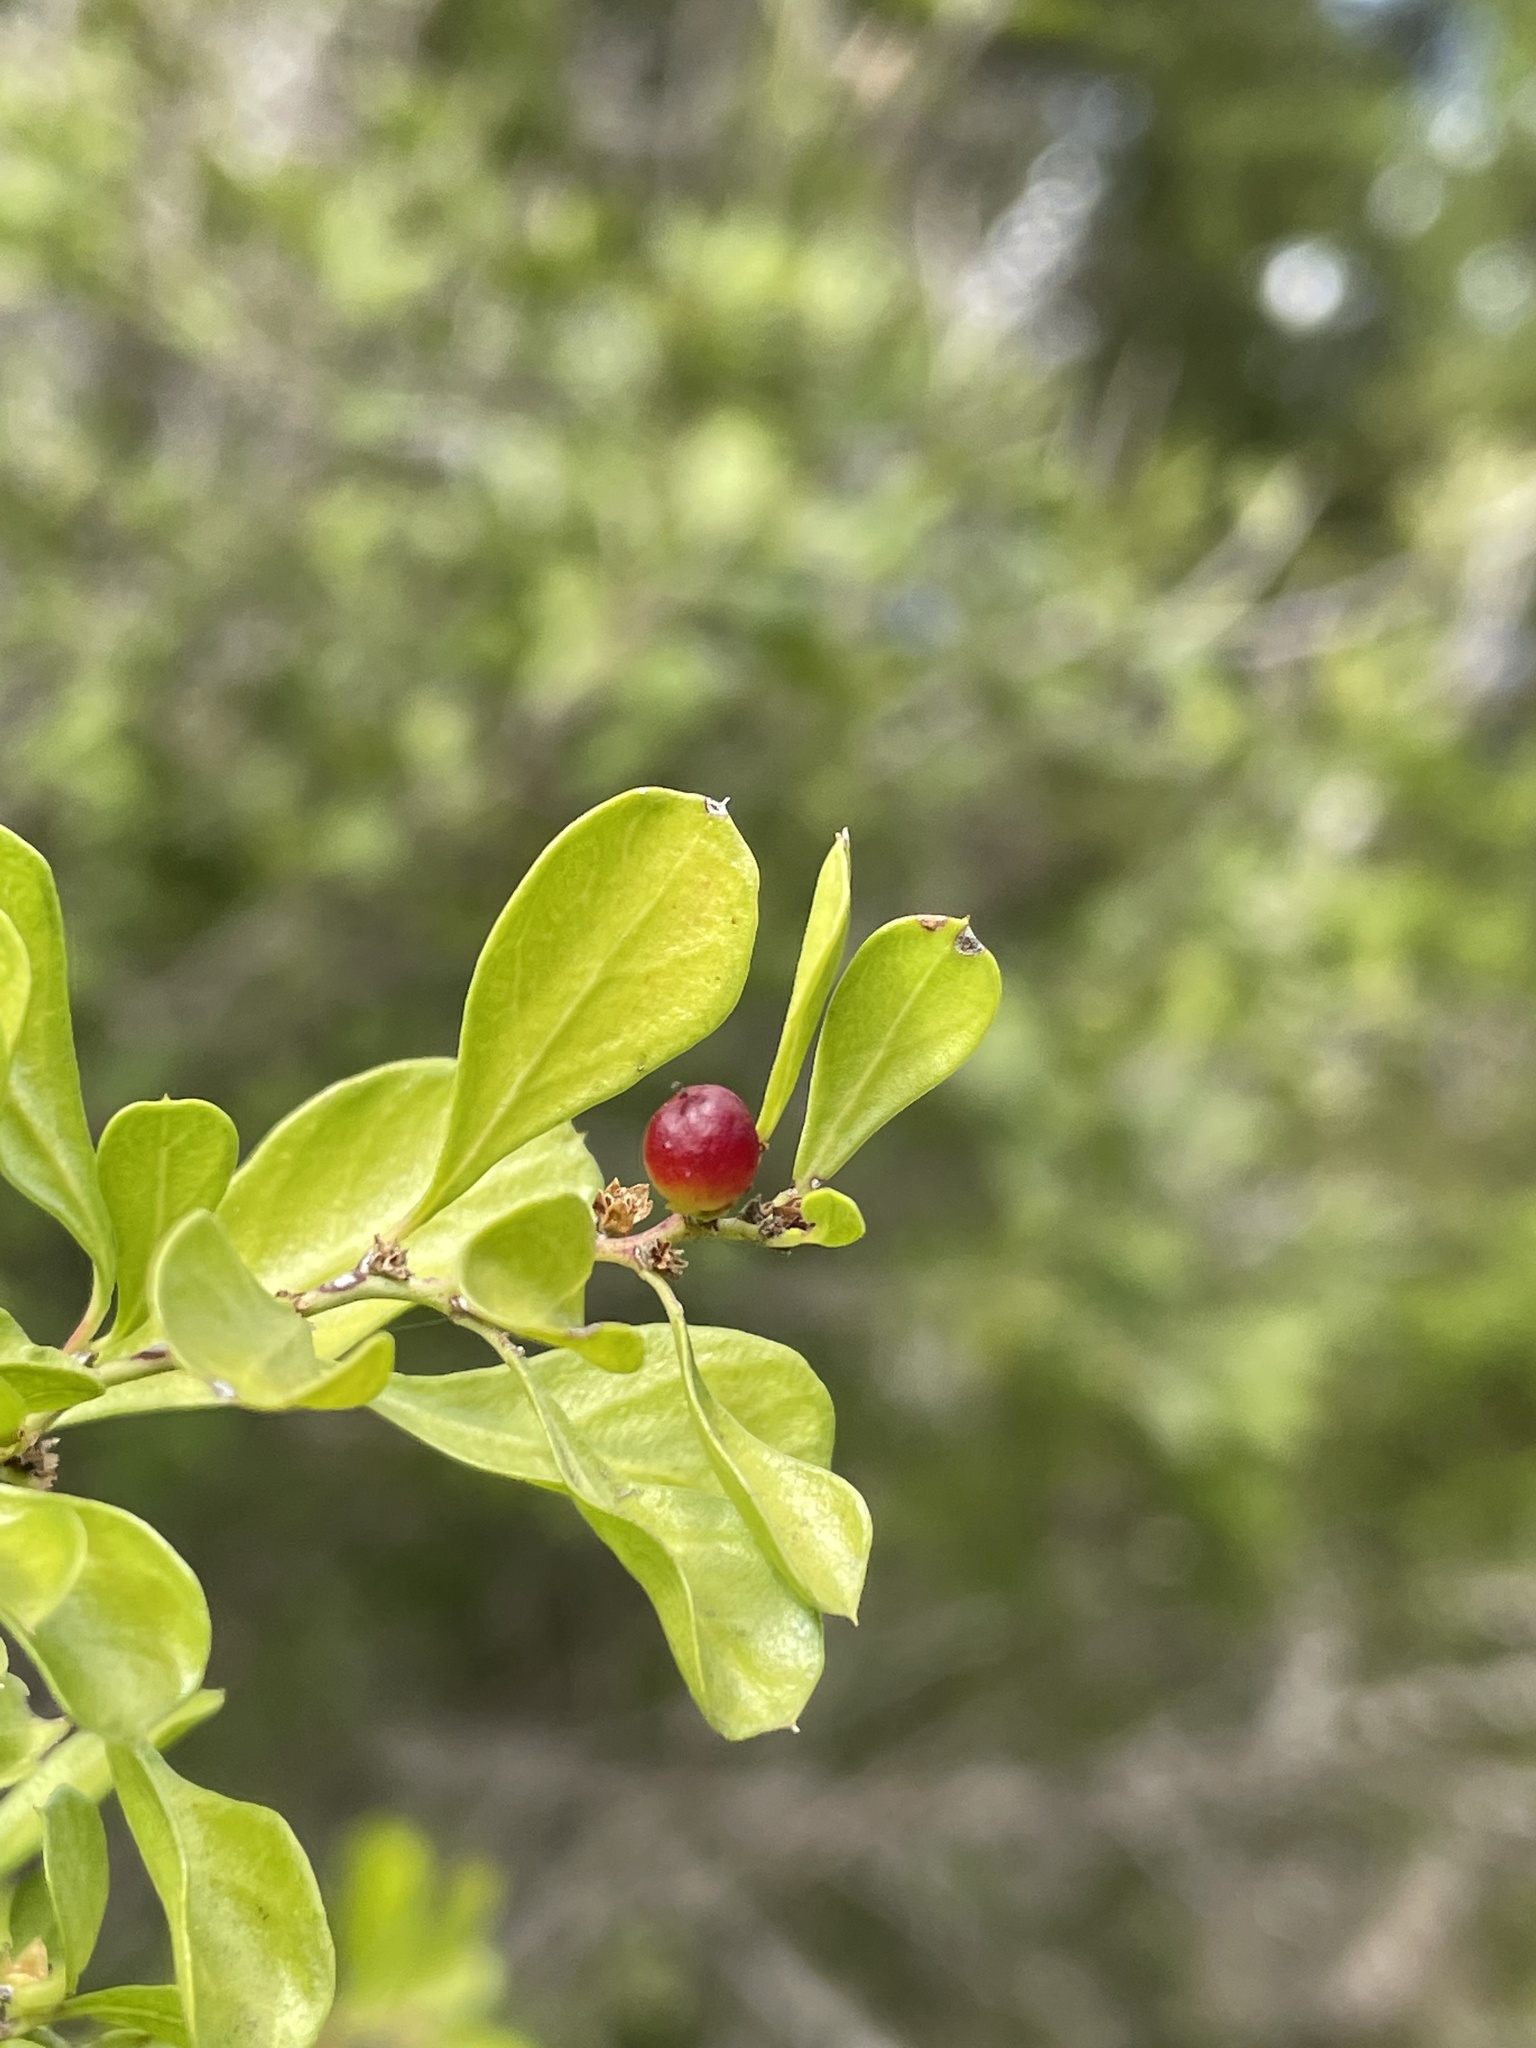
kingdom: Plantae
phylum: Tracheophyta
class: Magnoliopsida
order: Rosales
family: Rhamnaceae
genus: Condalia
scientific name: Condalia hookeri
